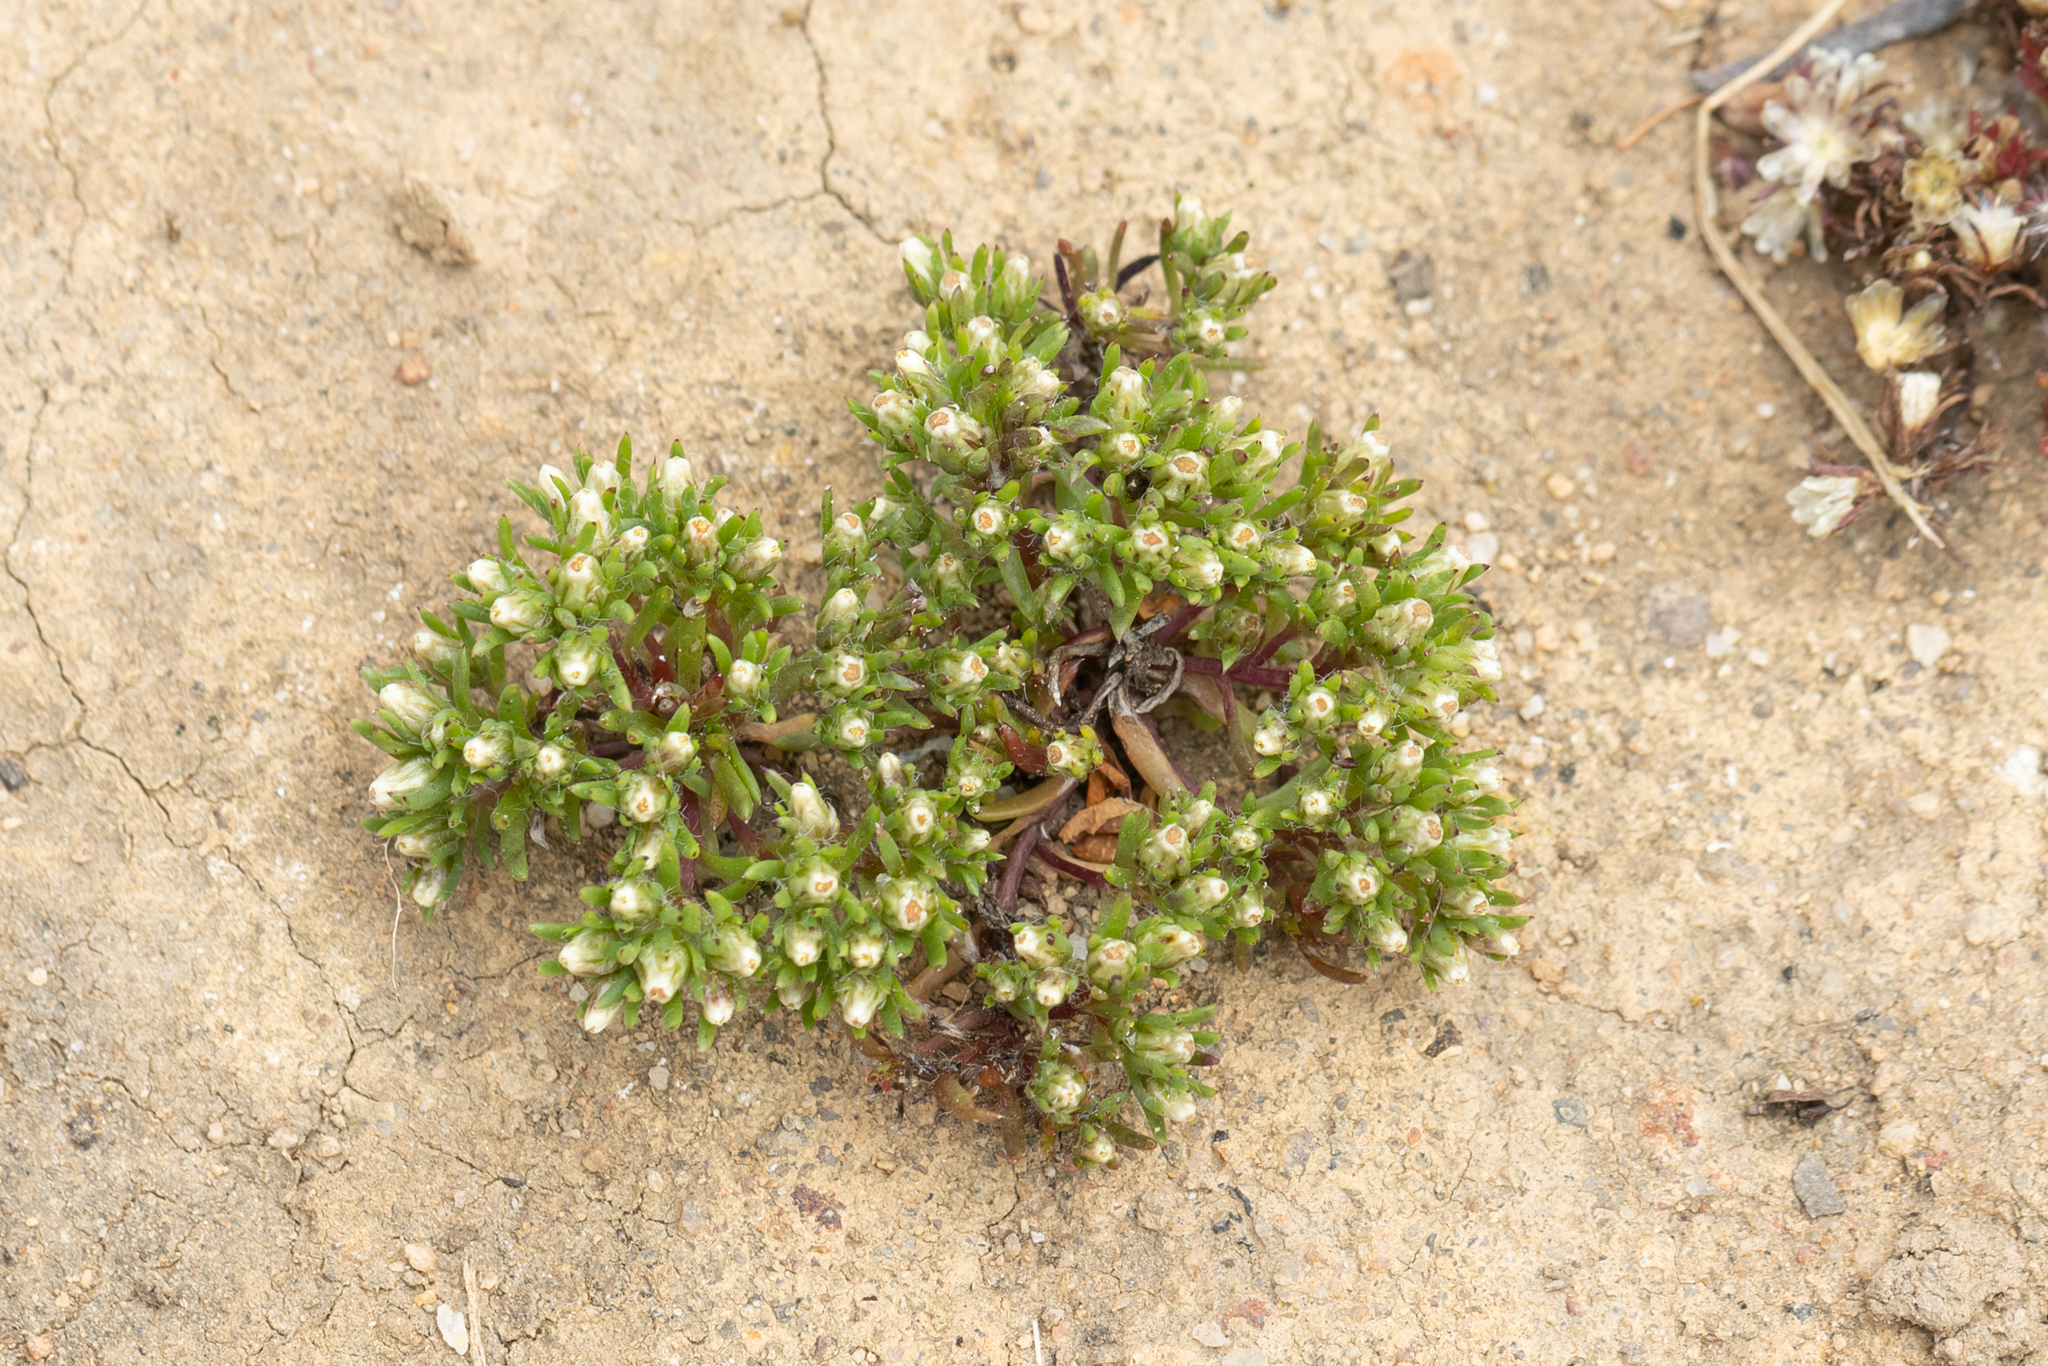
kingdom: Plantae
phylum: Tracheophyta
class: Magnoliopsida
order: Asterales
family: Asteraceae
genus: Hyalosperma
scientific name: Hyalosperma demissum
